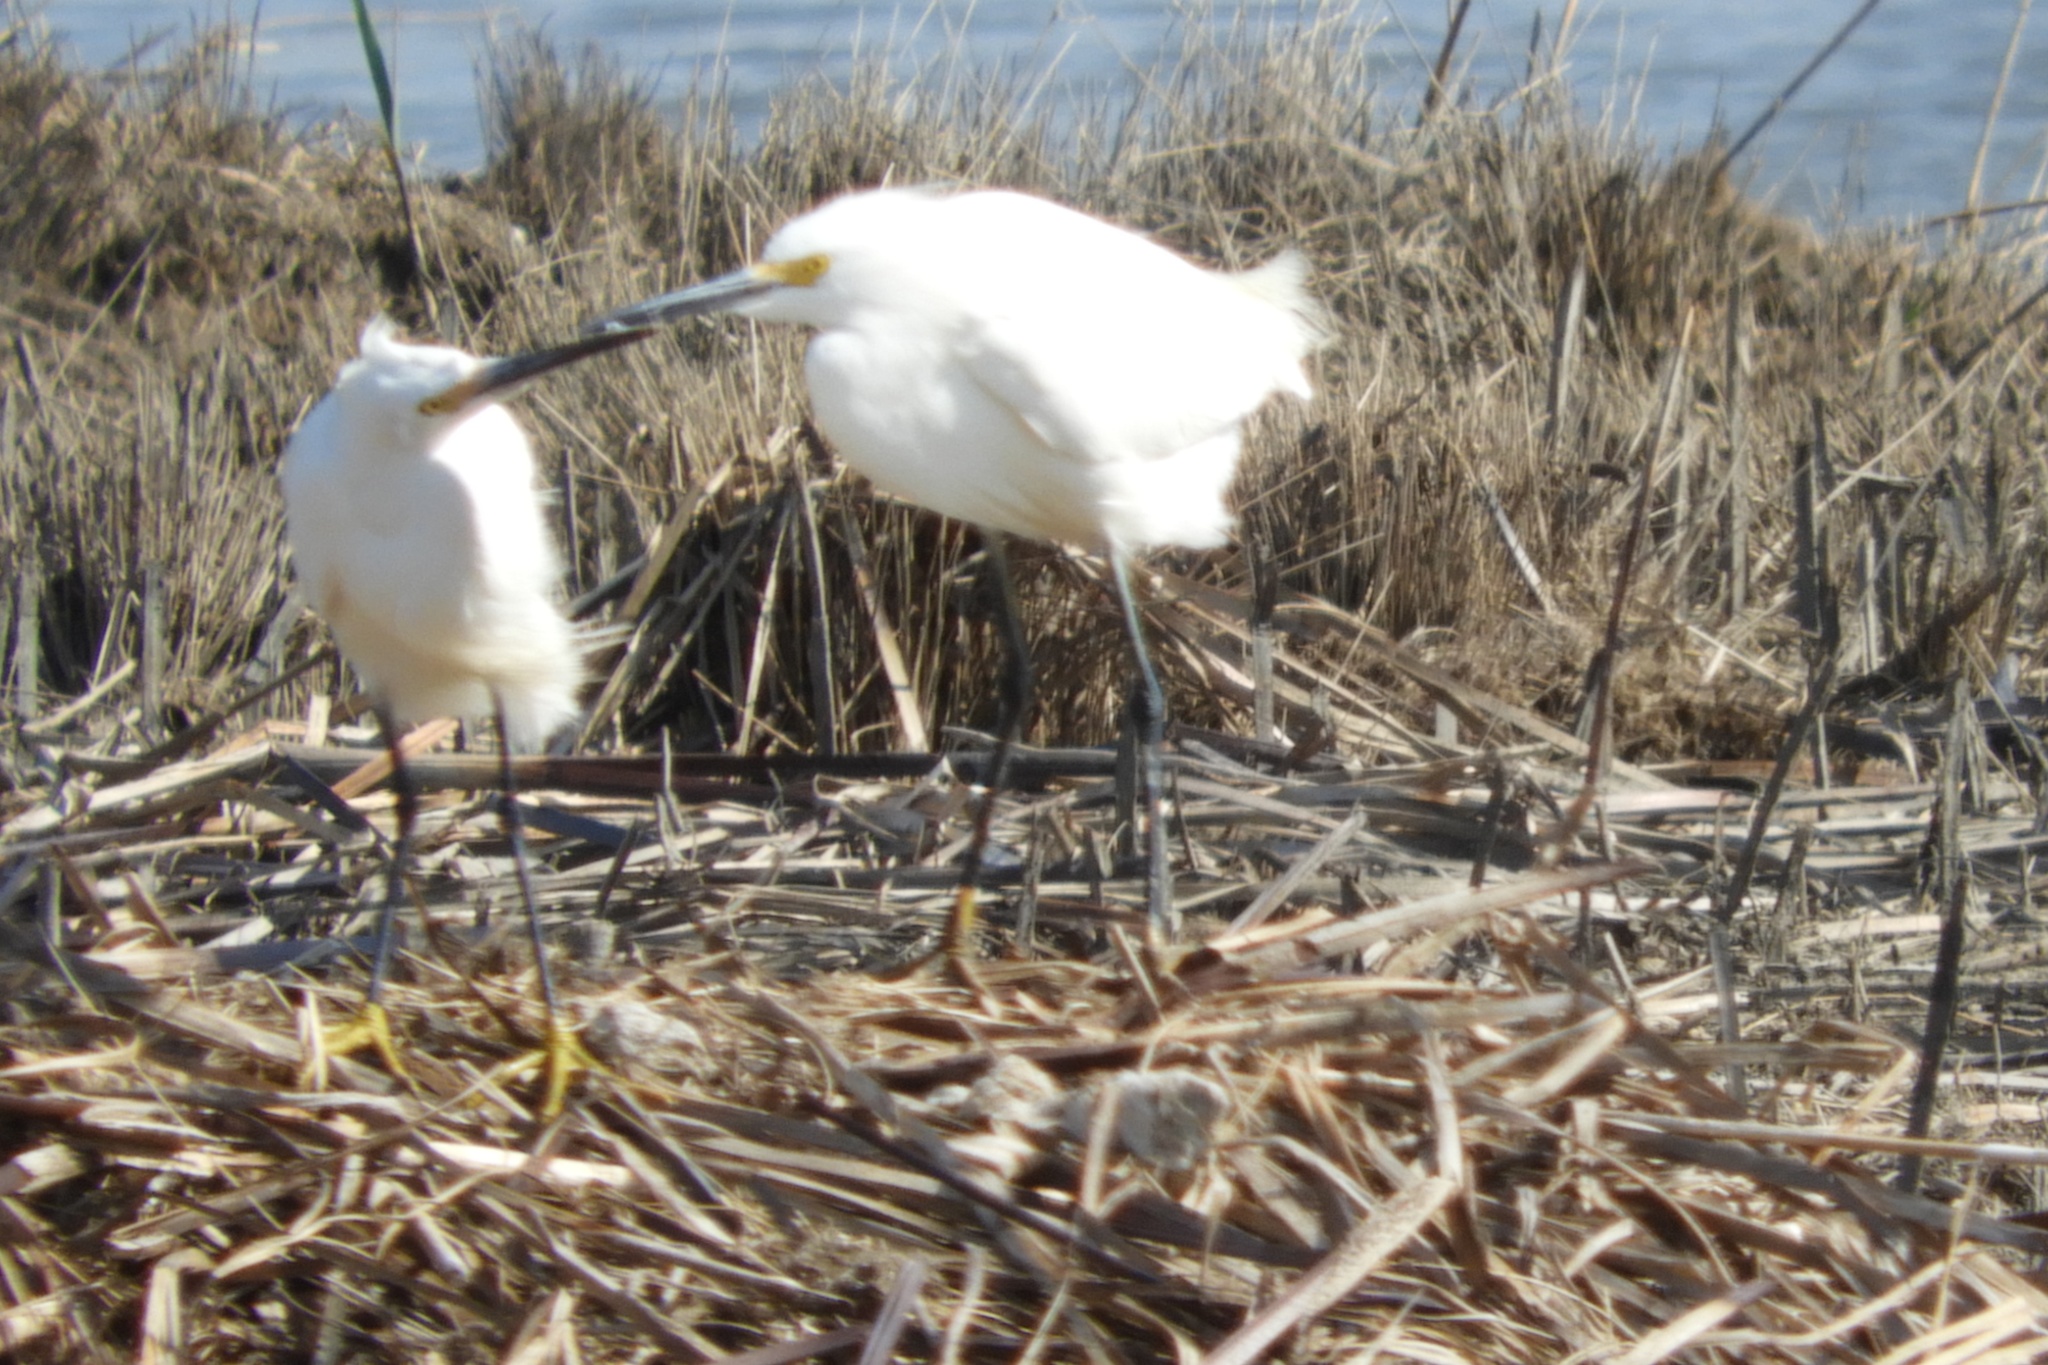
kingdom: Animalia
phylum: Chordata
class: Aves
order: Pelecaniformes
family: Ardeidae
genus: Egretta
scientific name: Egretta thula
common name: Snowy egret
